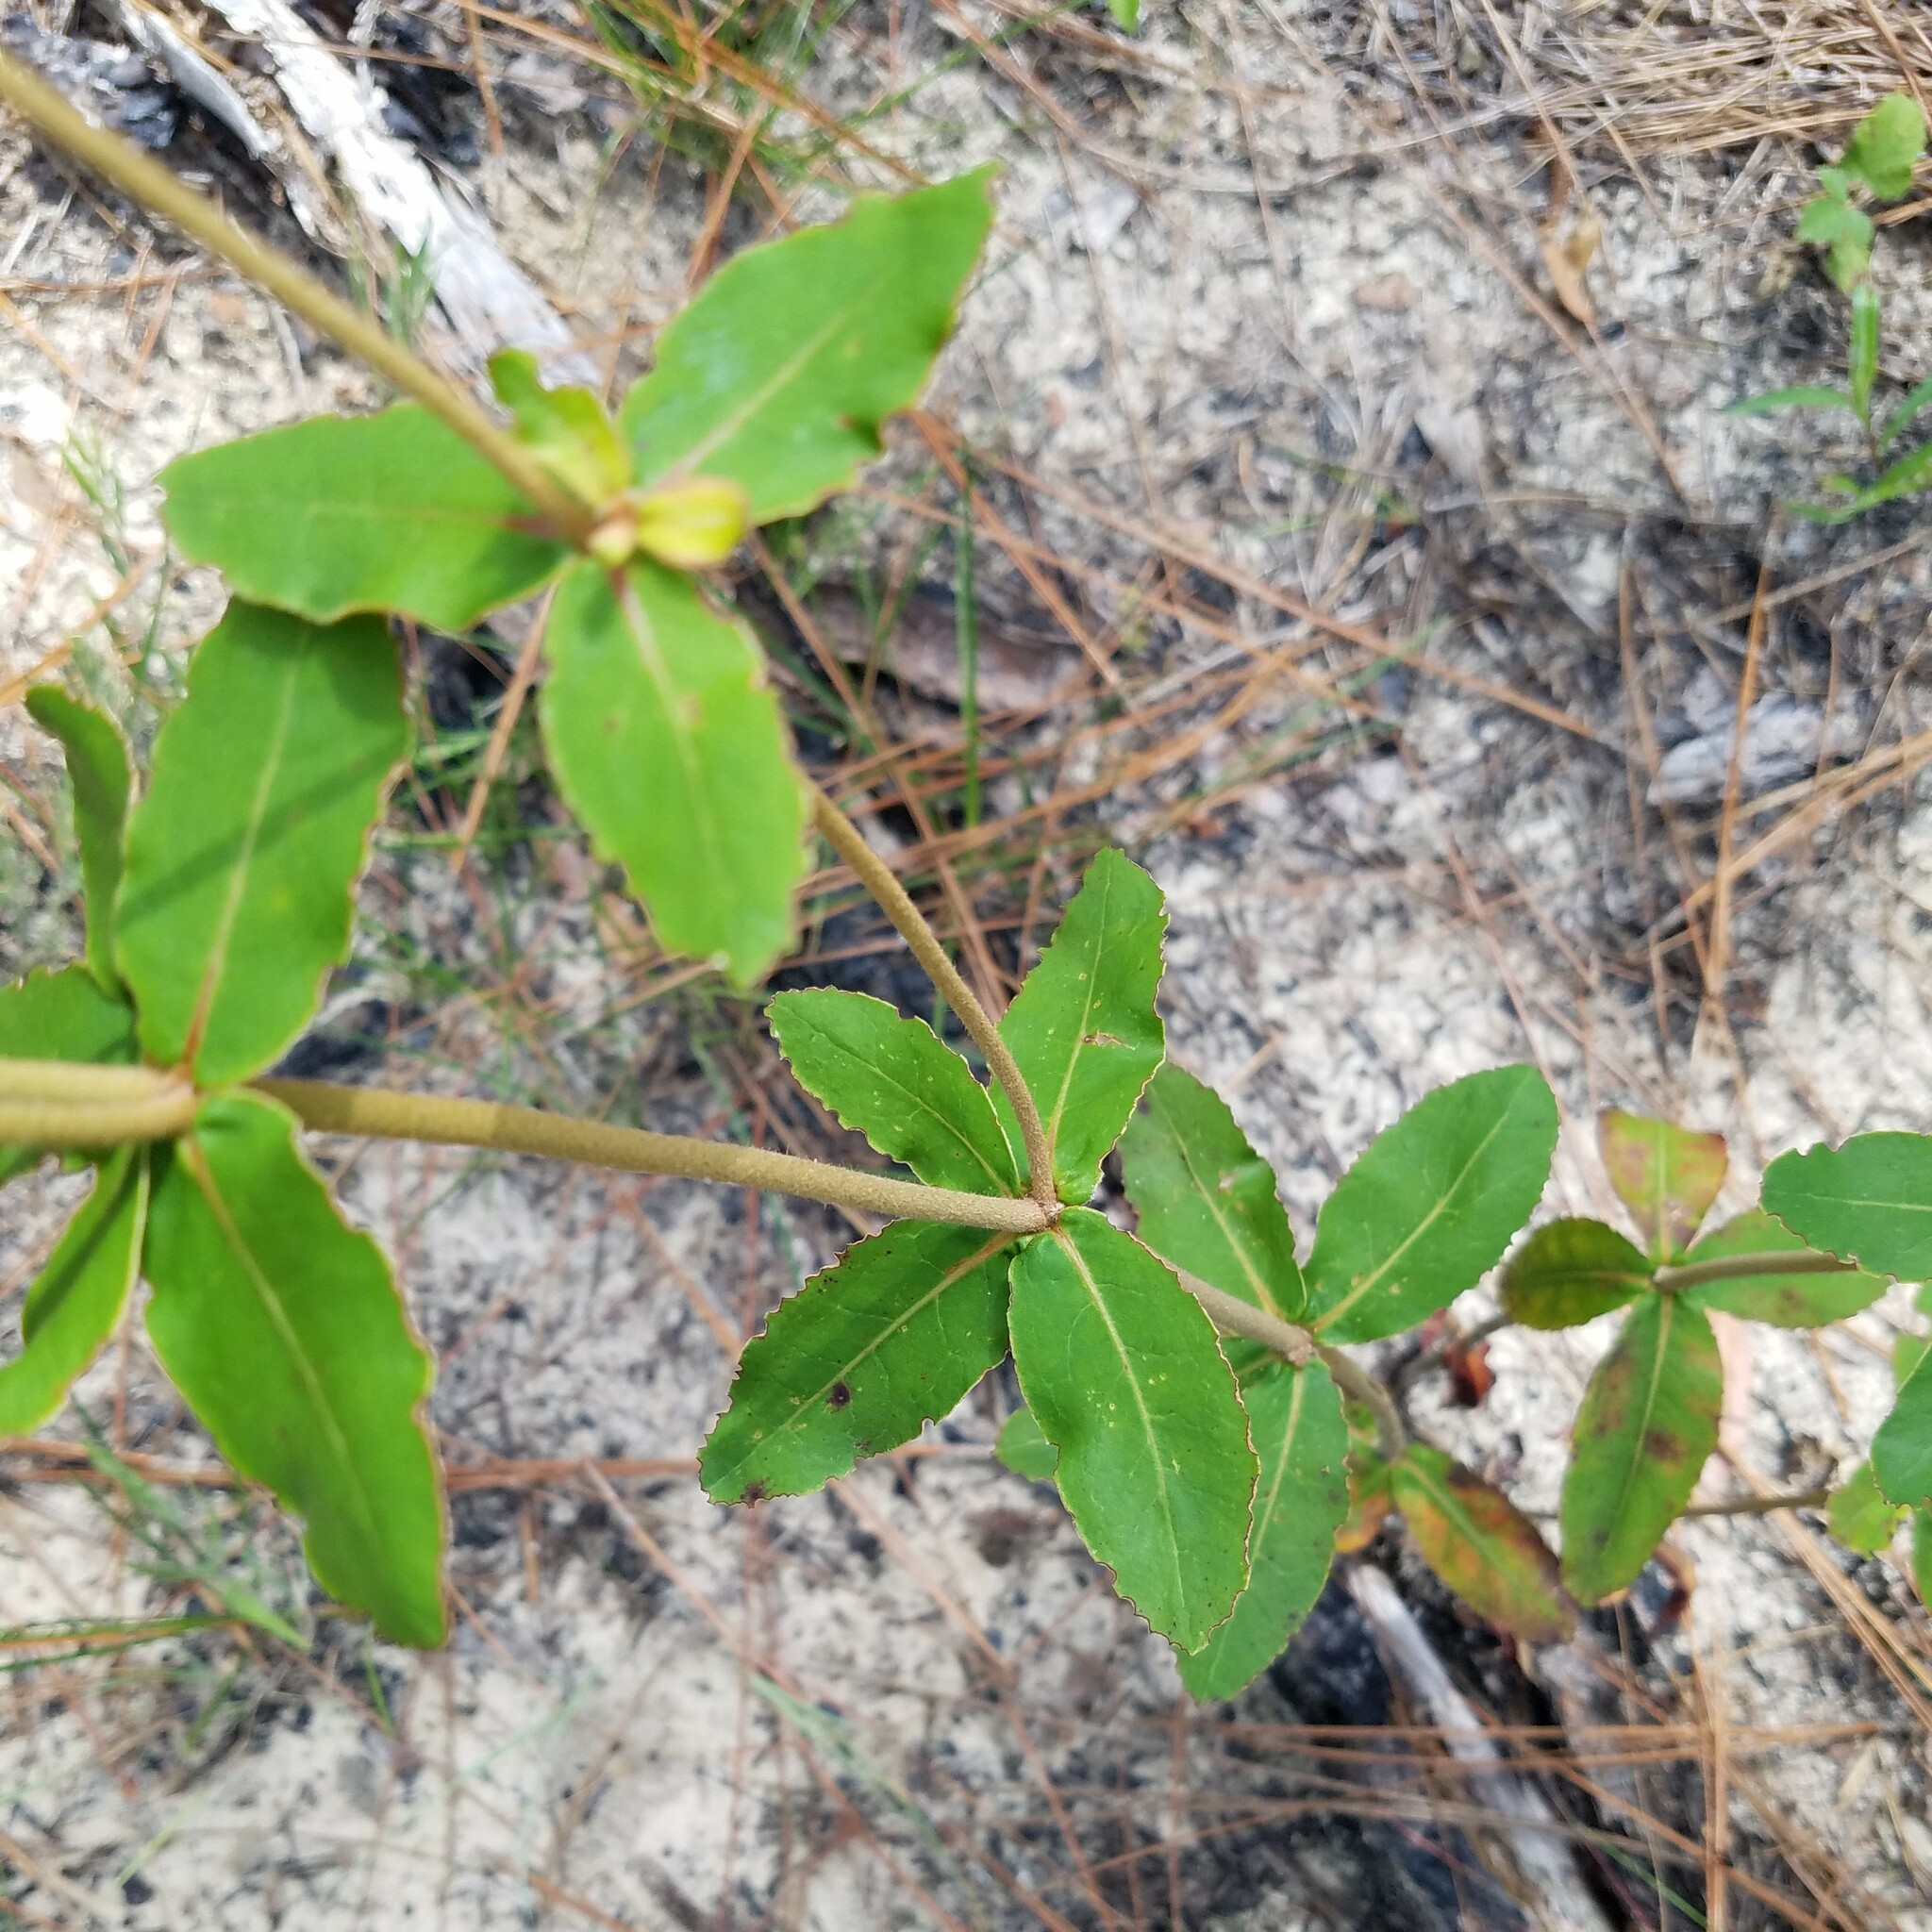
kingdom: Plantae
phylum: Tracheophyta
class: Magnoliopsida
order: Caryophyllales
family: Polygonaceae
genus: Eriogonum
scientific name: Eriogonum tomentosum
